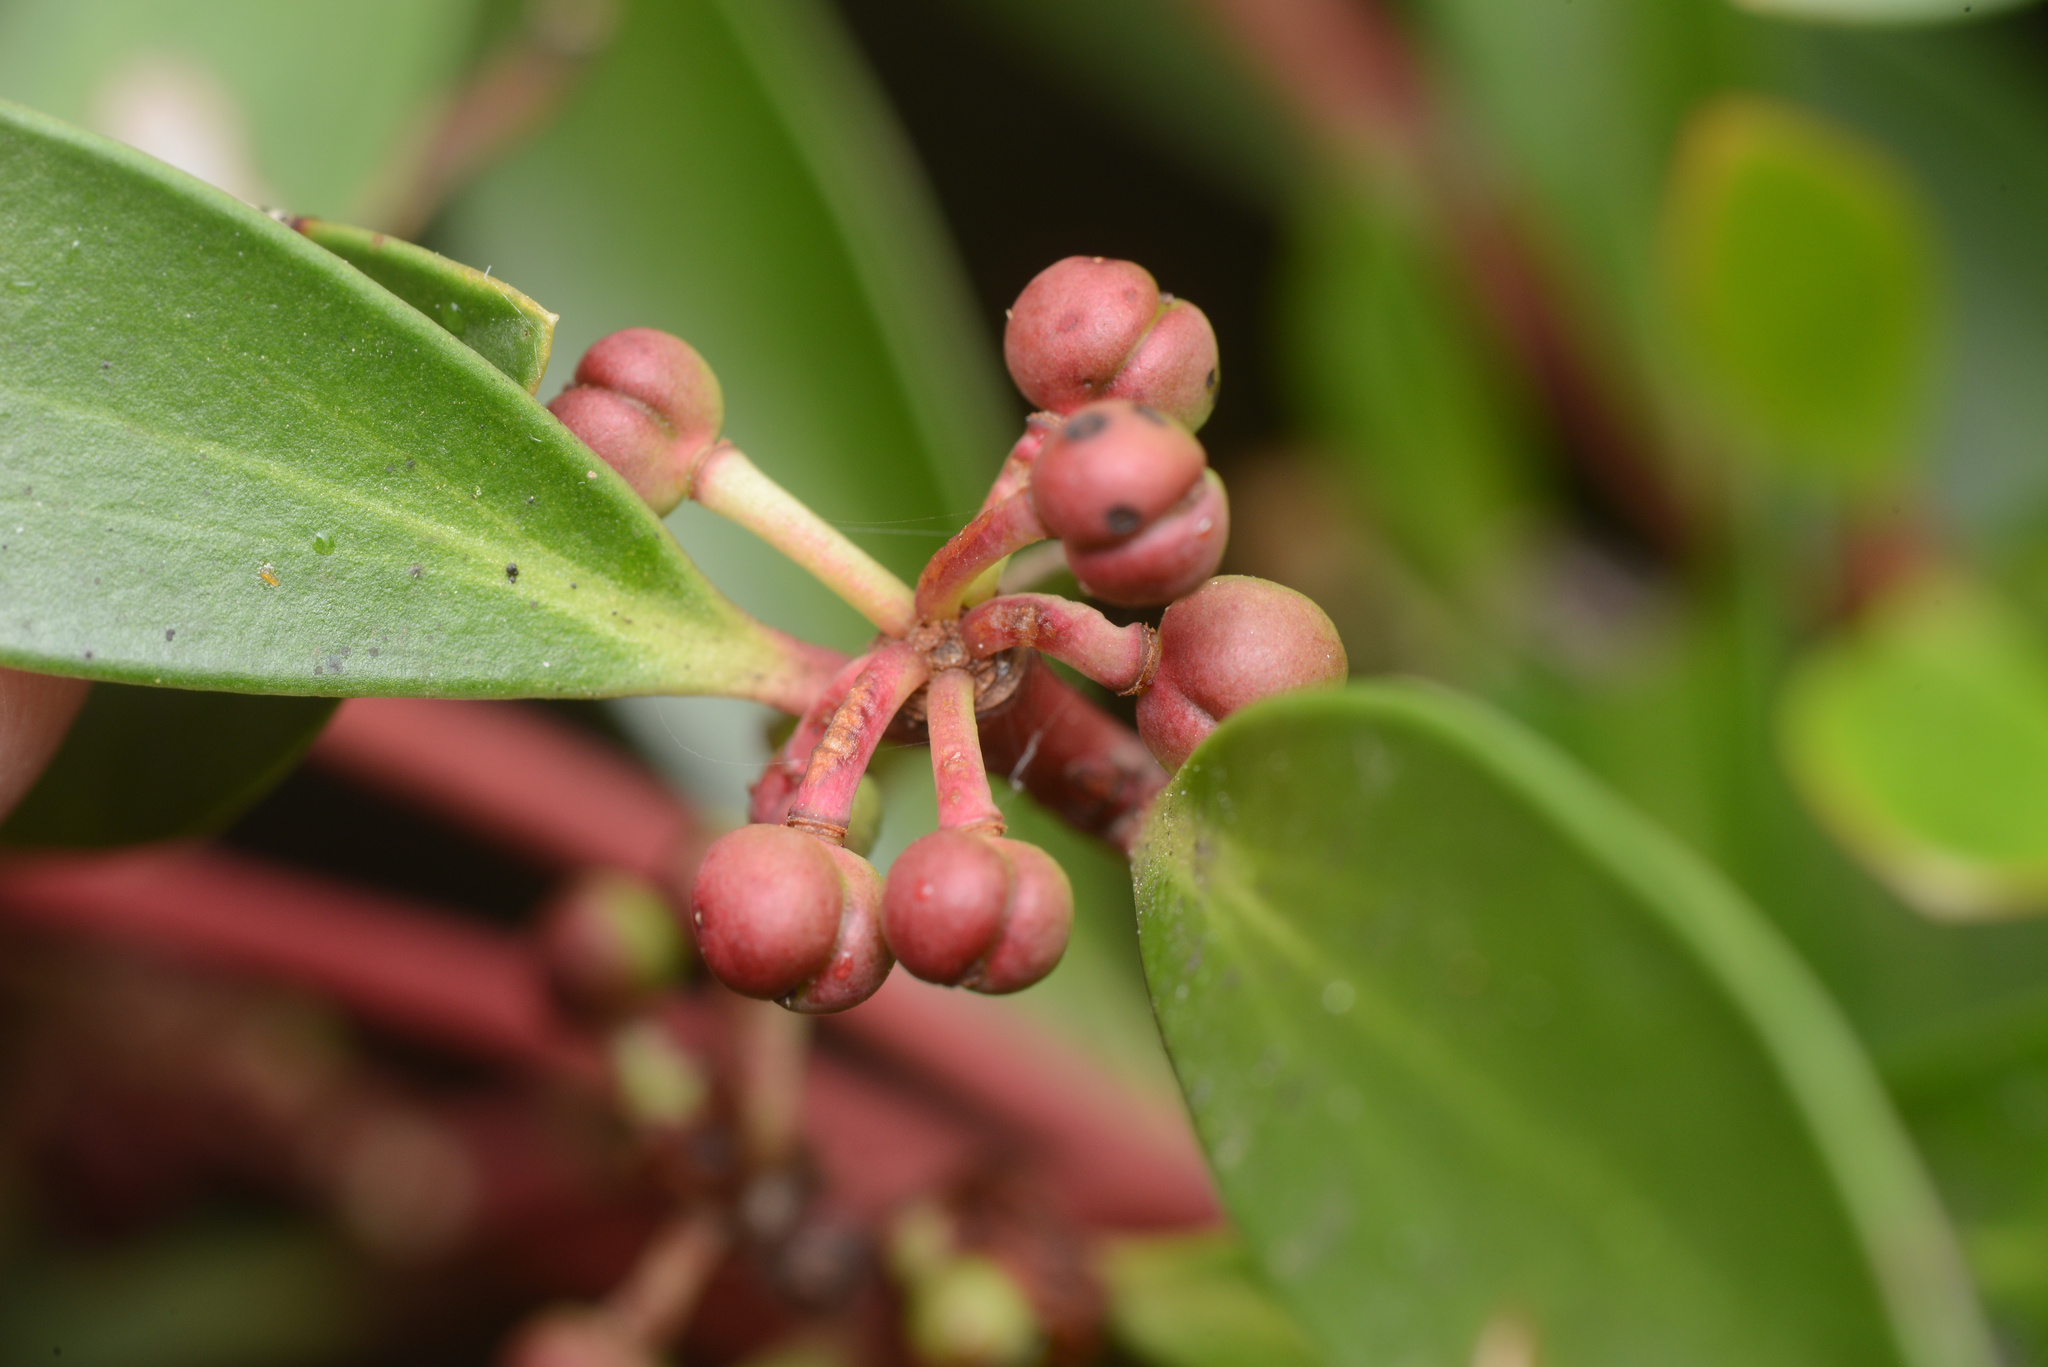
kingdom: Plantae
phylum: Tracheophyta
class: Magnoliopsida
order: Canellales
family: Winteraceae
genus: Drimys
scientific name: Drimys aromatica
